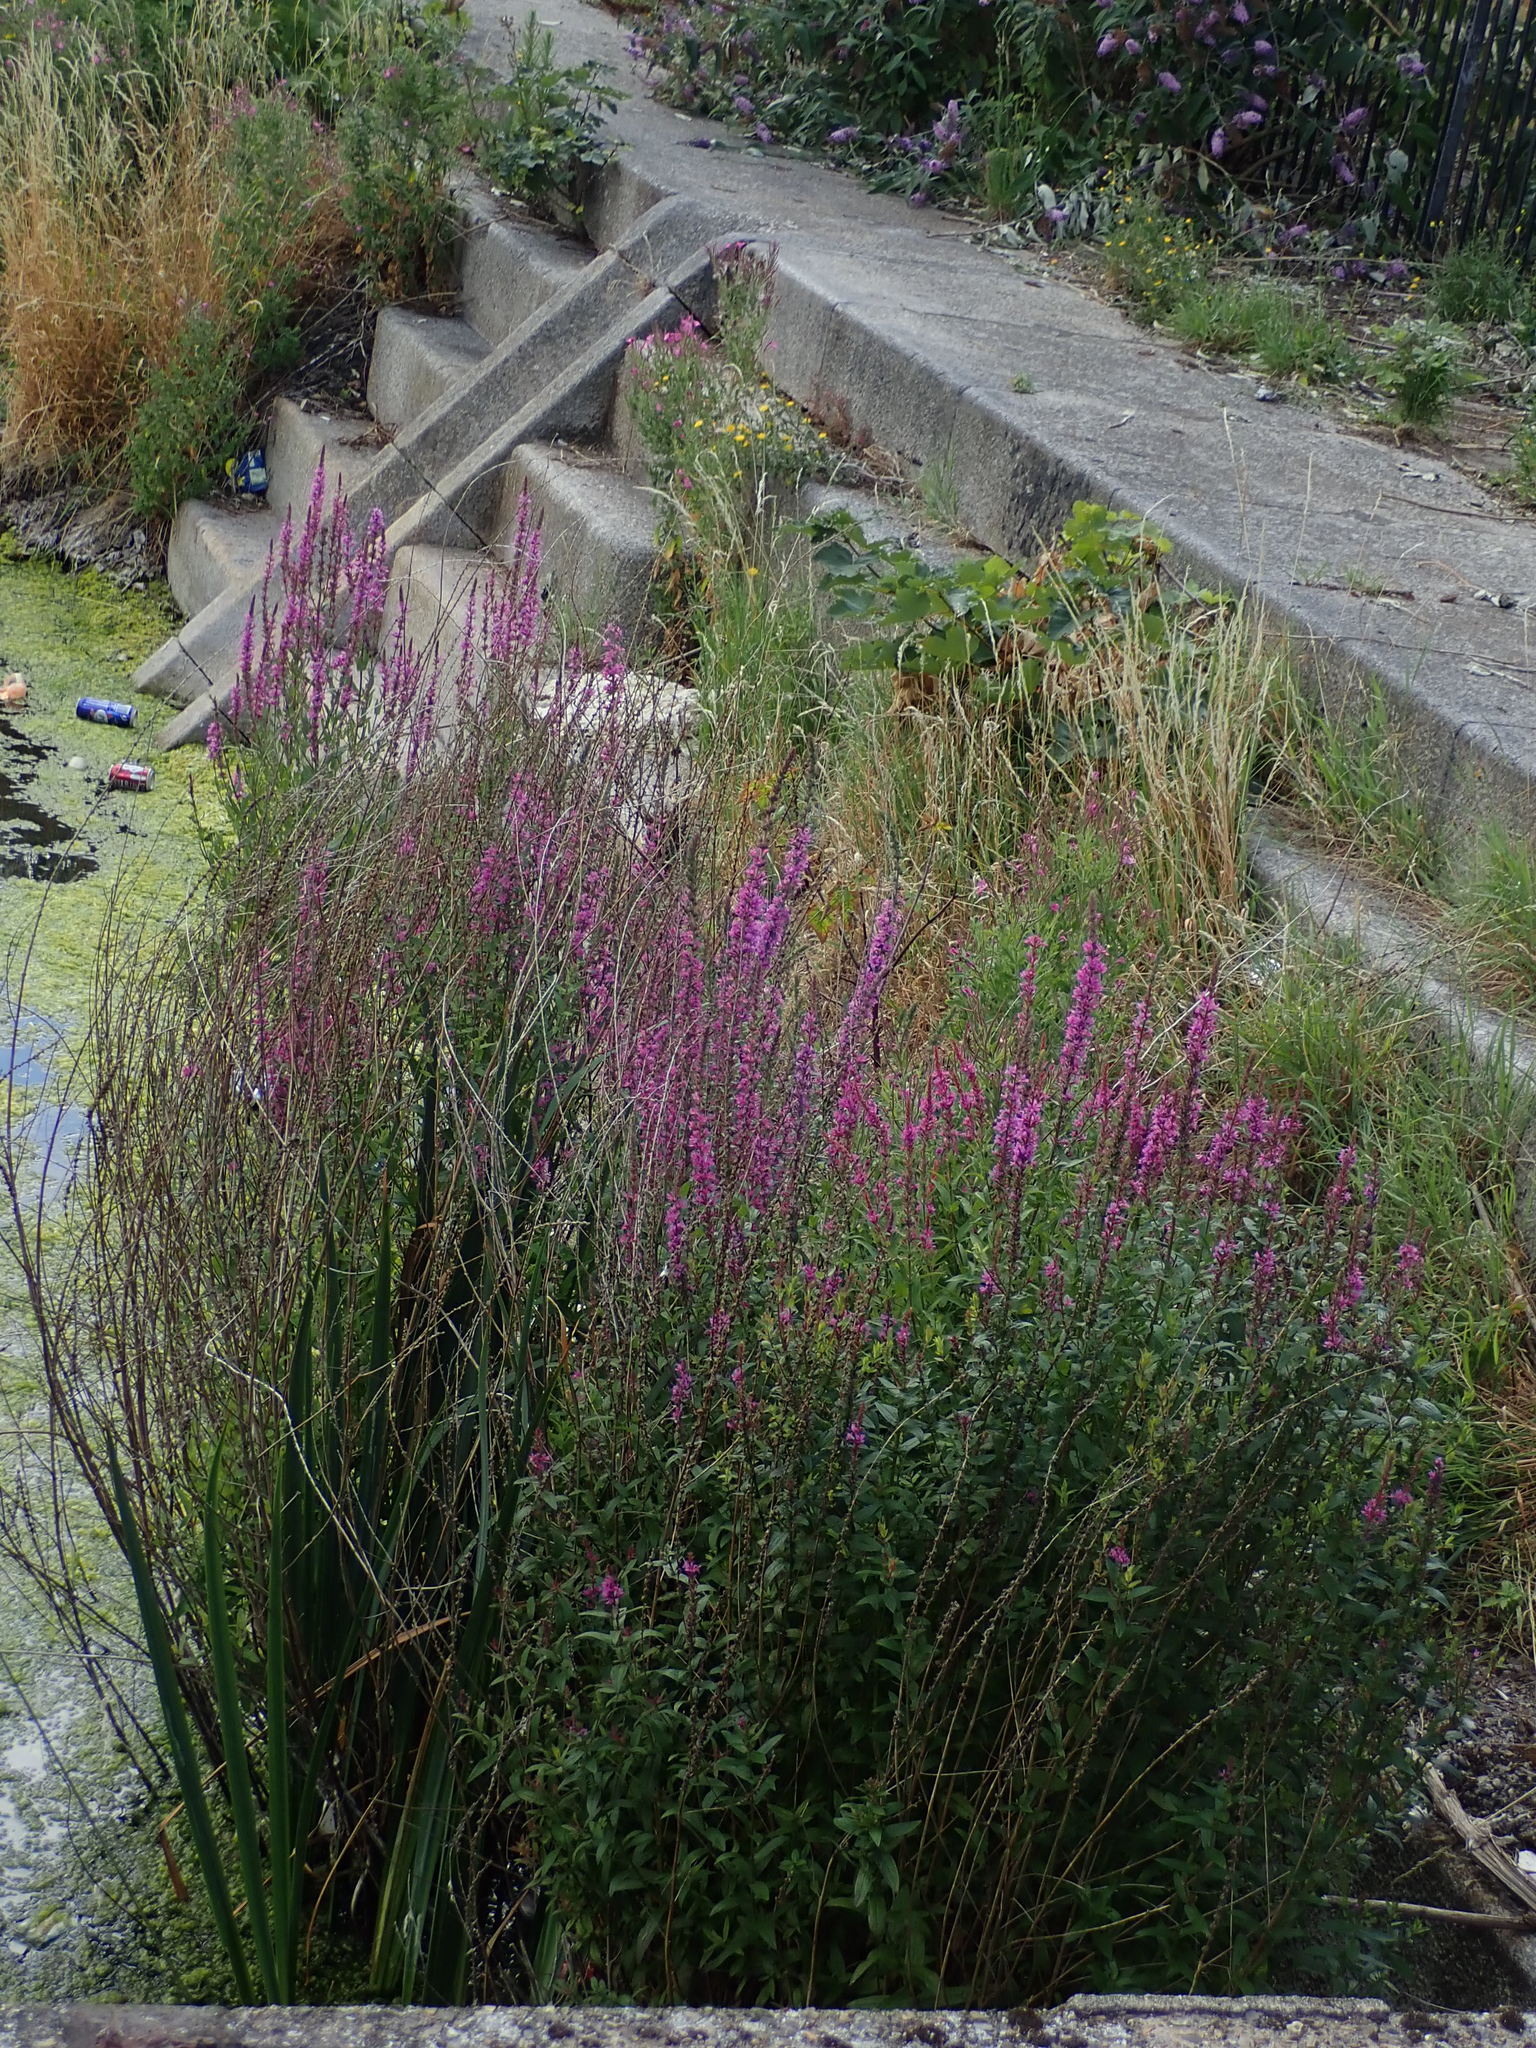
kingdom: Plantae
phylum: Tracheophyta
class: Magnoliopsida
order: Myrtales
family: Lythraceae
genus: Lythrum
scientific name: Lythrum salicaria
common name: Purple loosestrife
